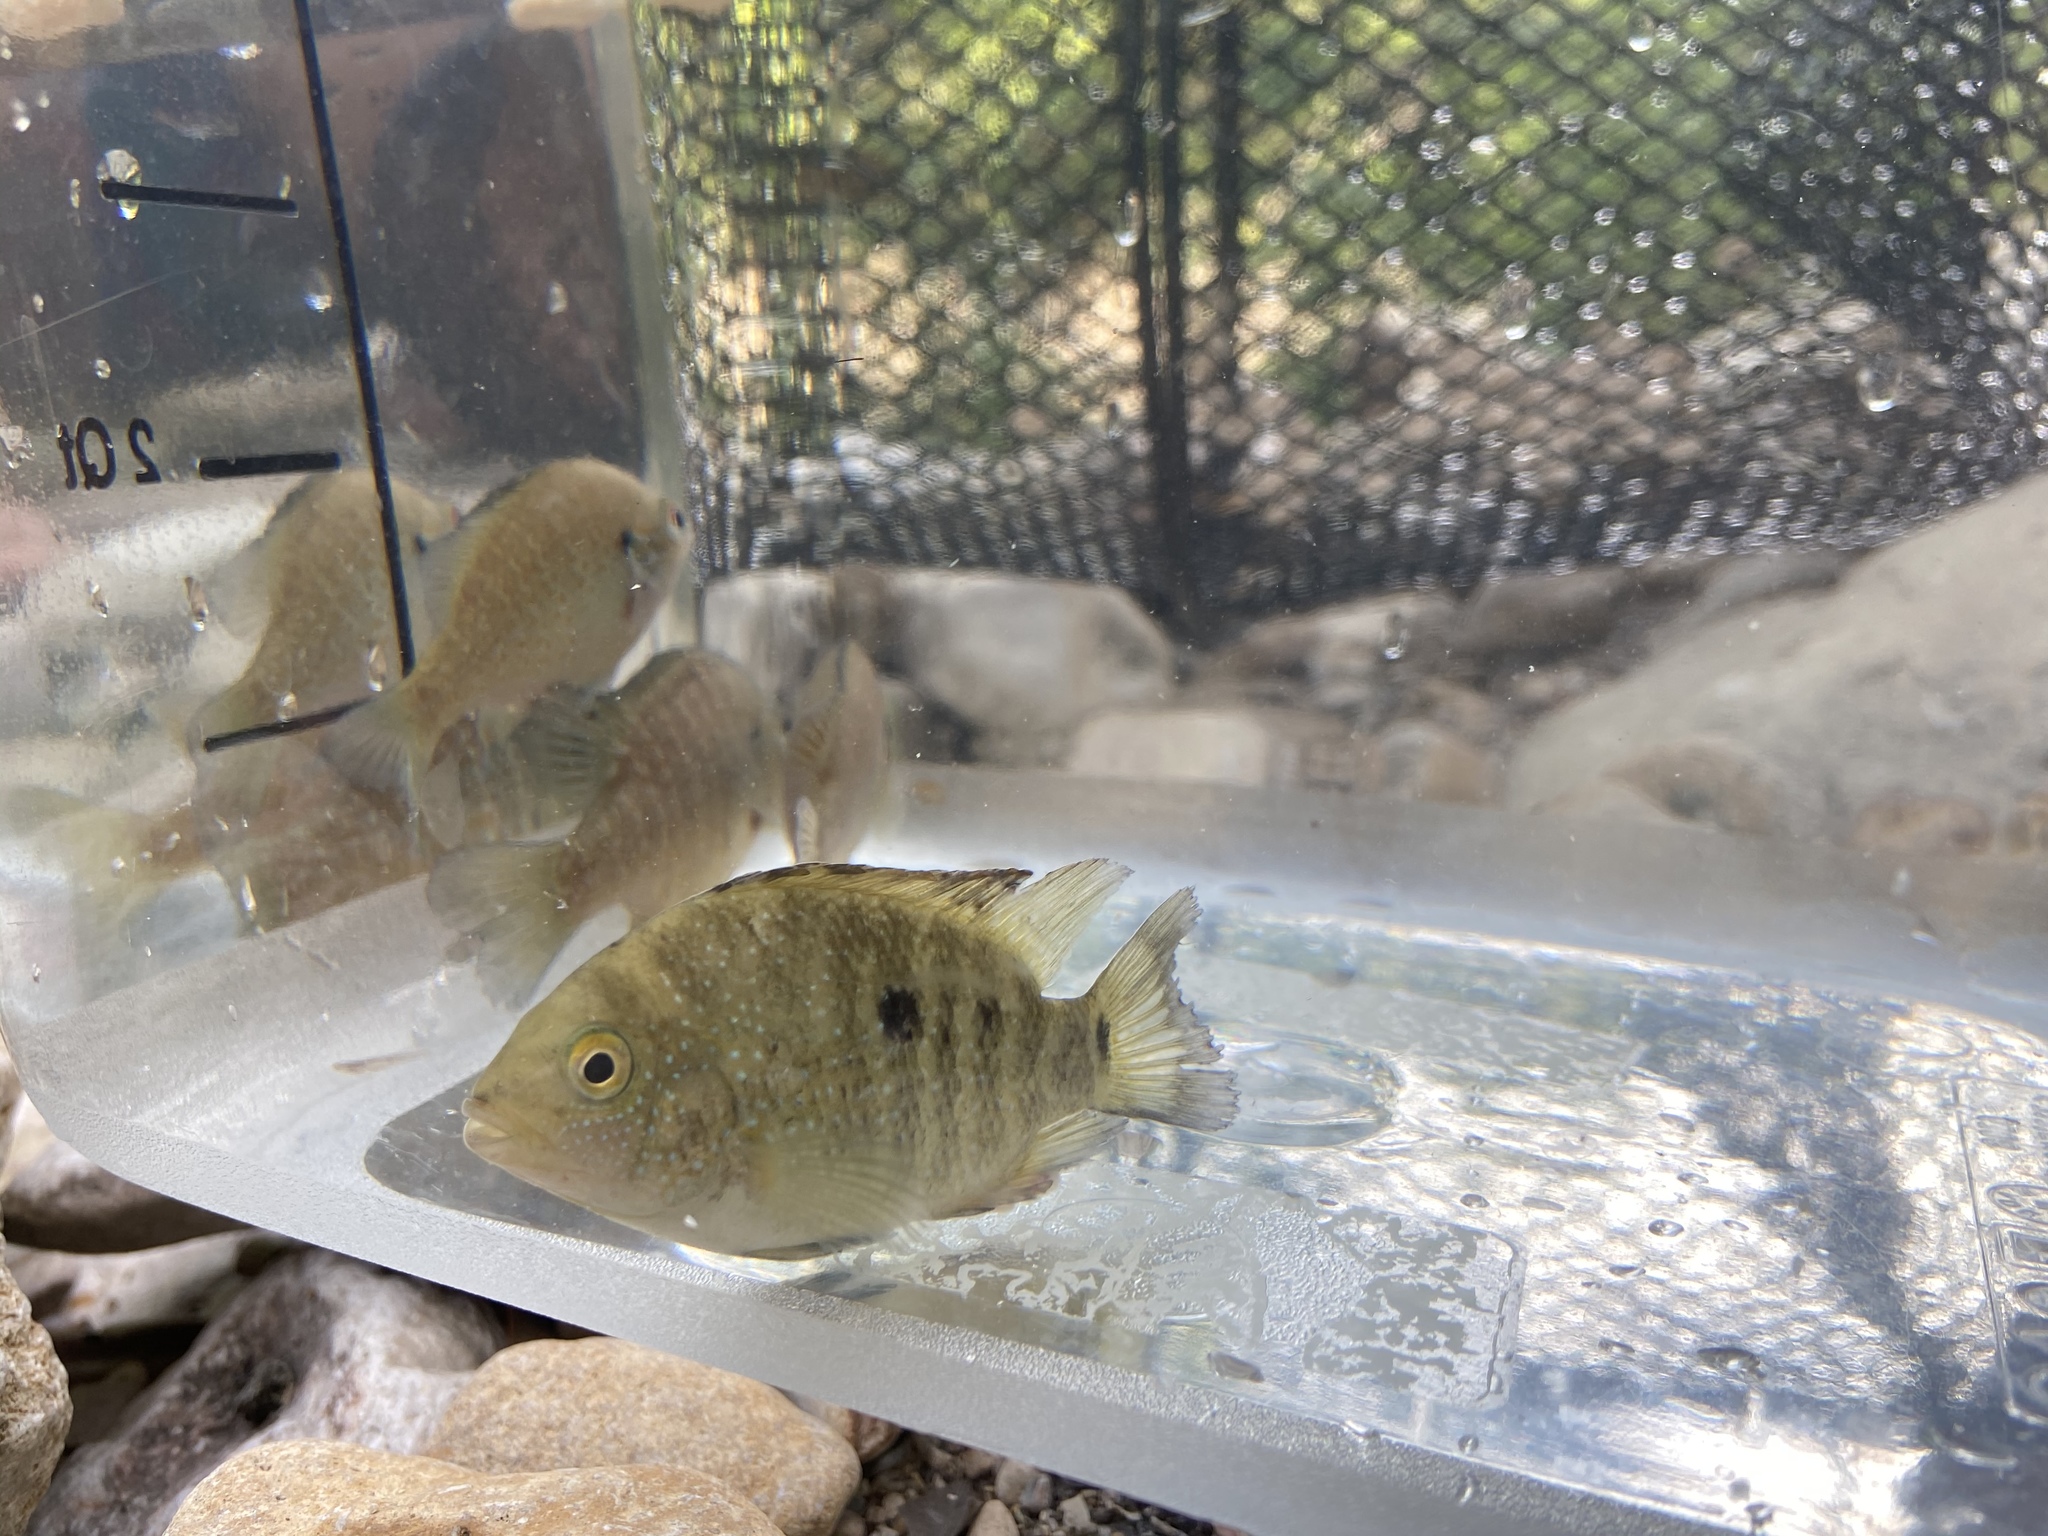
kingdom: Animalia
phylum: Chordata
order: Perciformes
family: Cichlidae
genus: Herichthys
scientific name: Herichthys cyanoguttatus
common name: Rio grande cichlid
